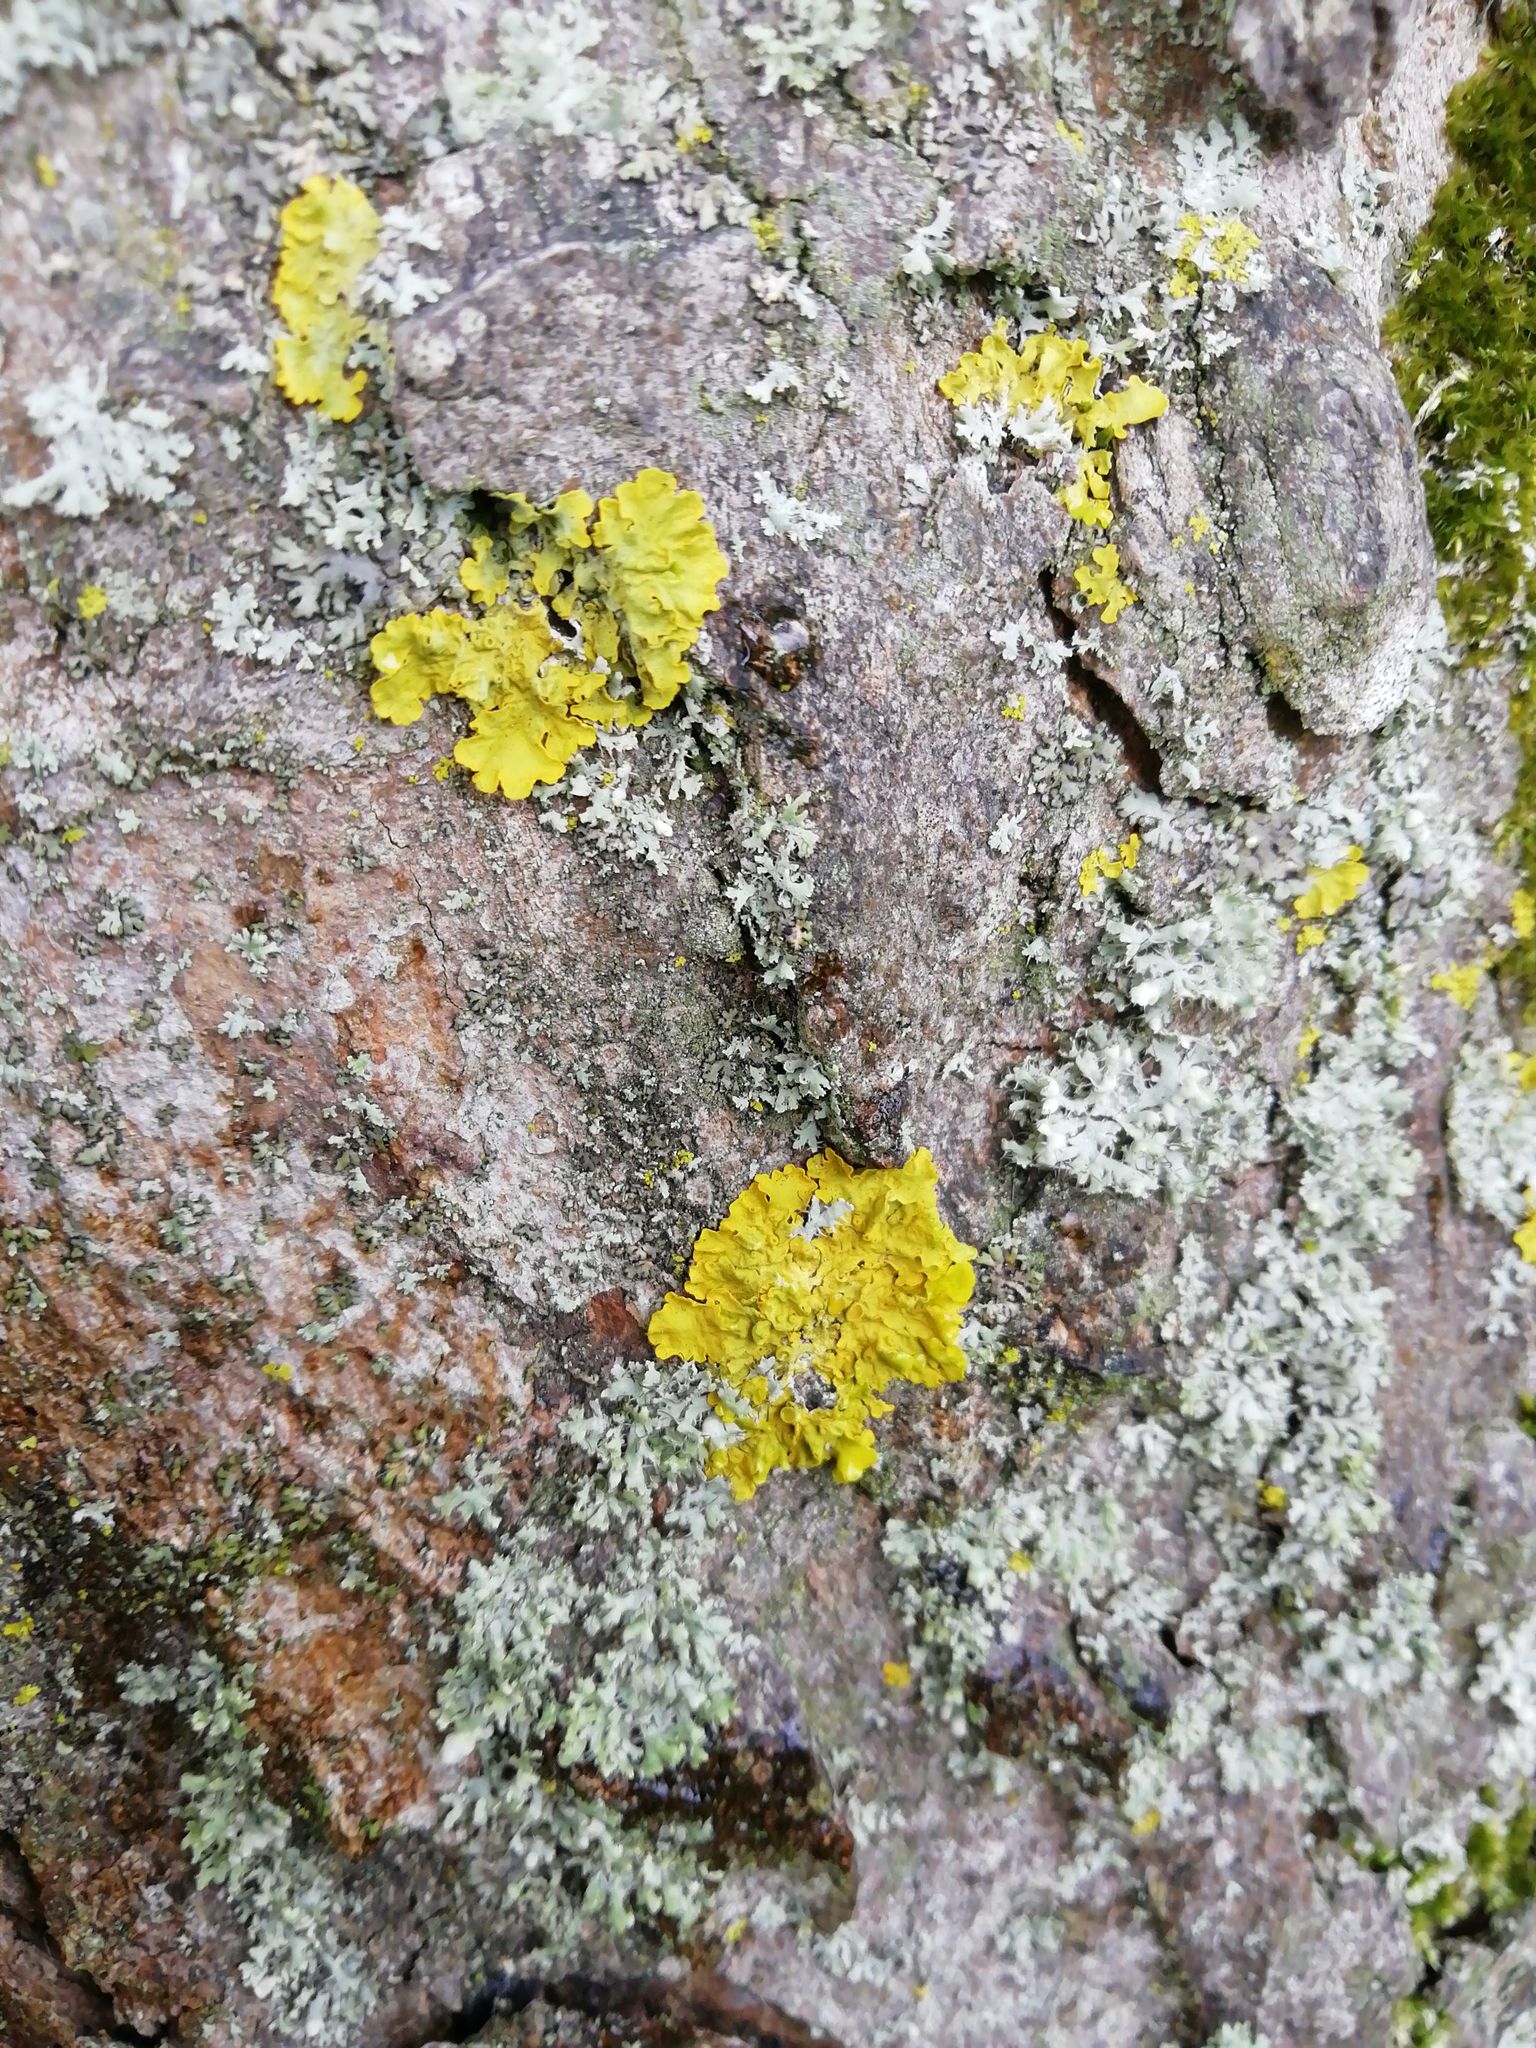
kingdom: Fungi
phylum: Ascomycota
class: Lecanoromycetes
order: Teloschistales
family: Teloschistaceae
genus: Xanthoria
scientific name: Xanthoria parietina
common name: Common orange lichen
